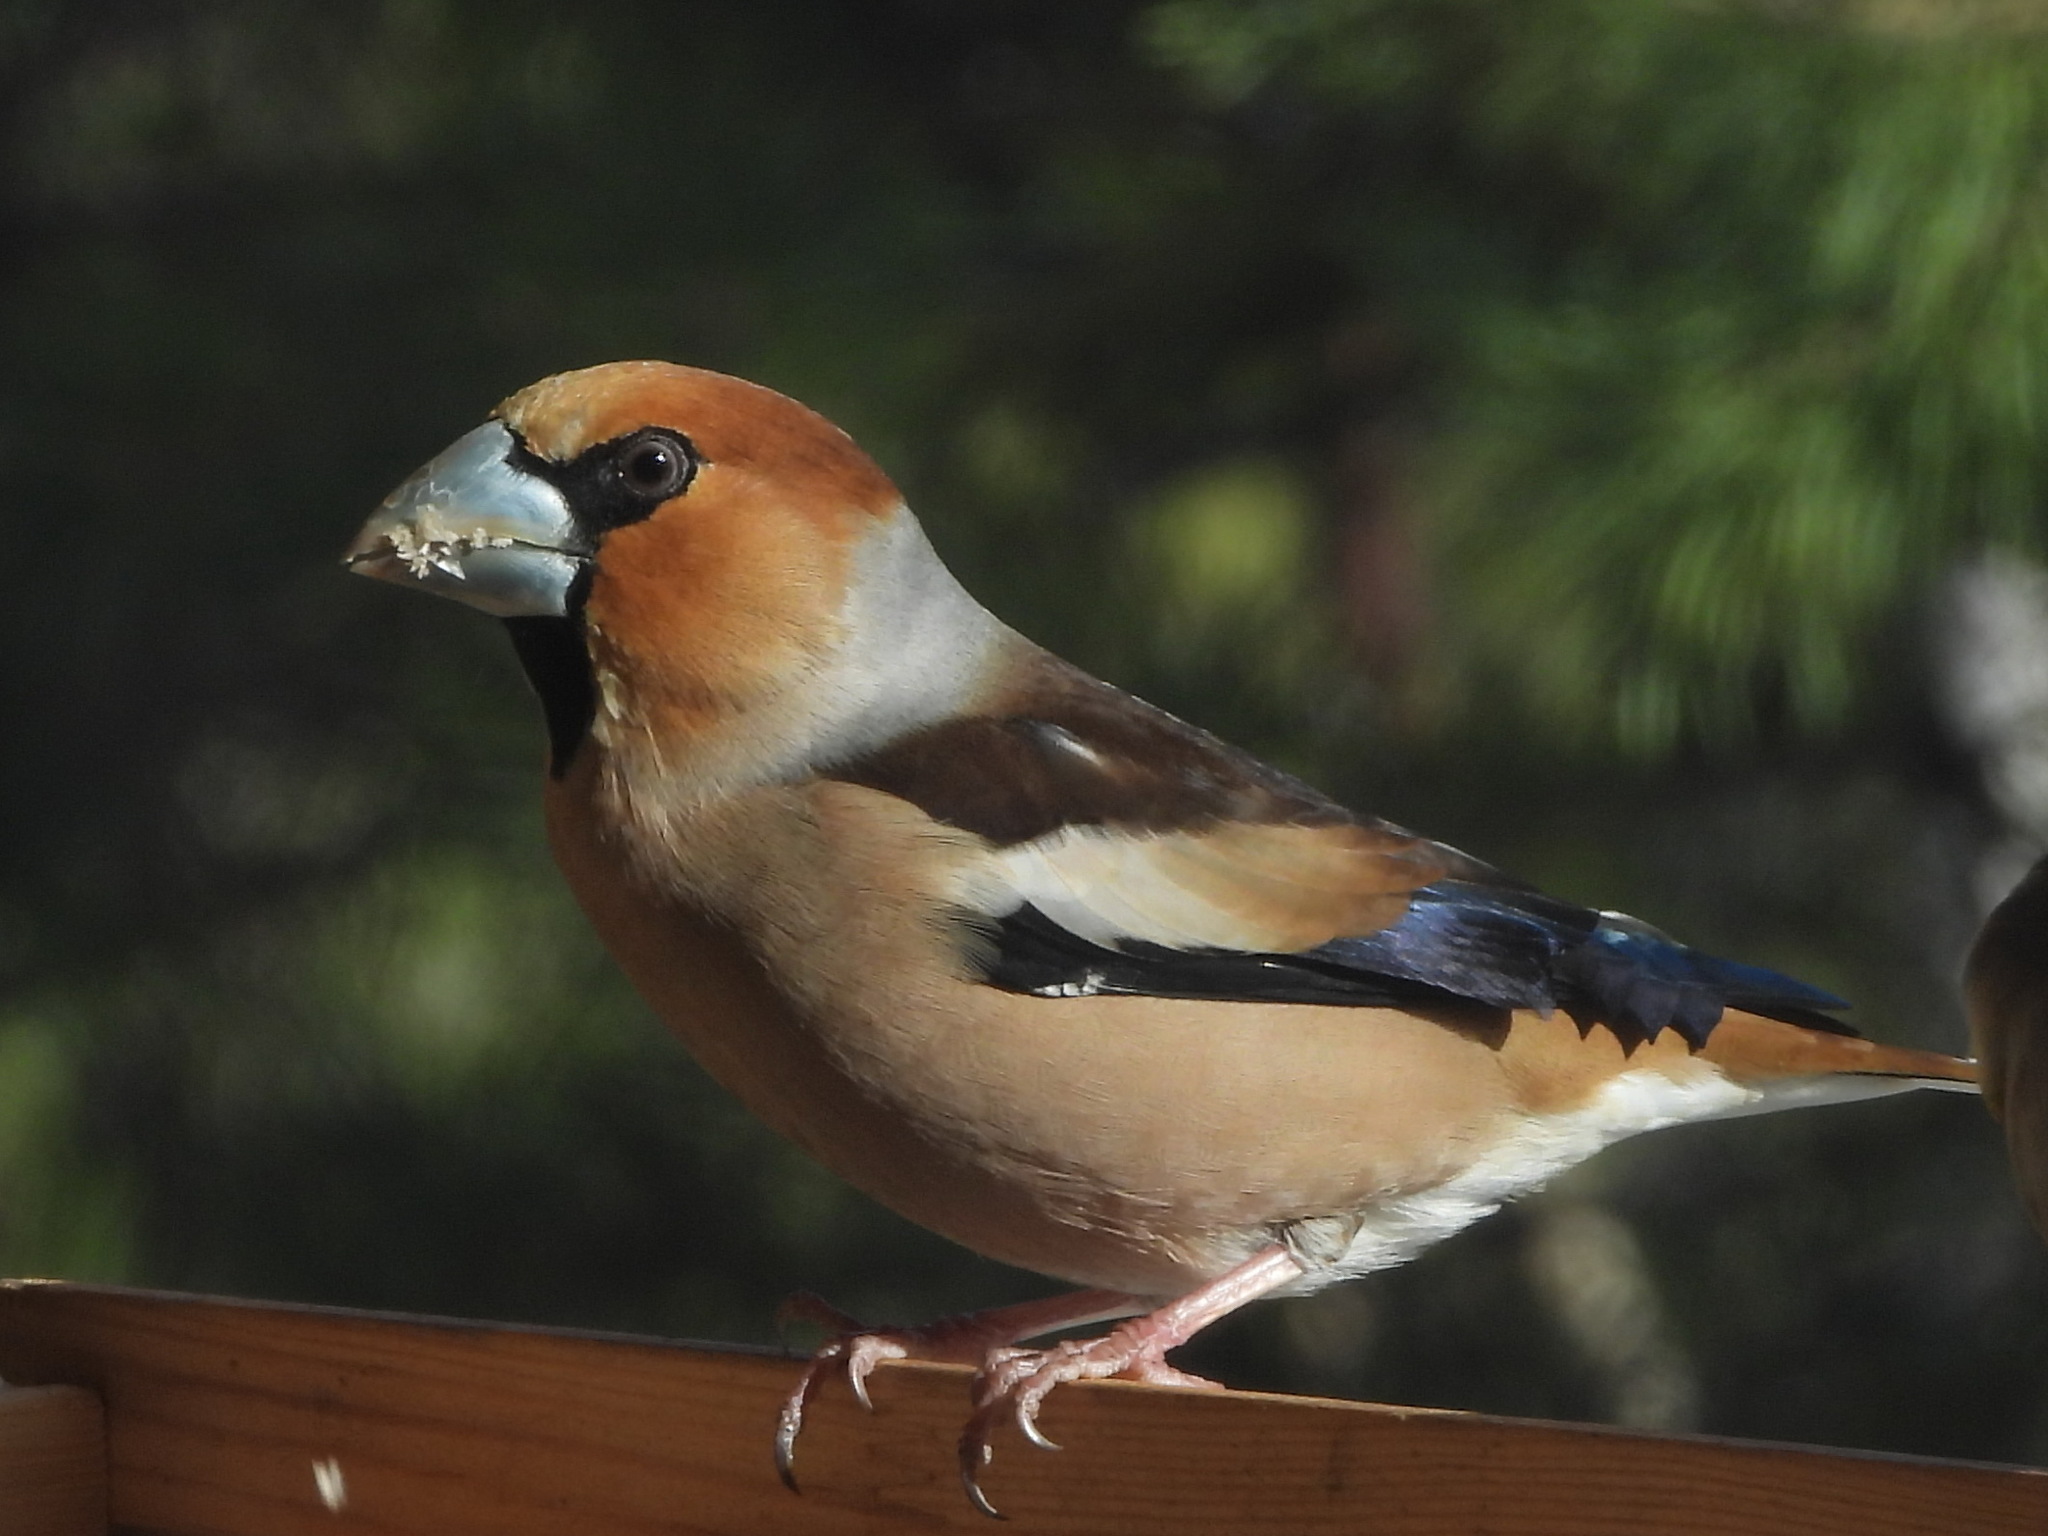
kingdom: Animalia
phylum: Chordata
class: Aves
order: Passeriformes
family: Fringillidae
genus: Coccothraustes
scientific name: Coccothraustes coccothraustes
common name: Hawfinch
